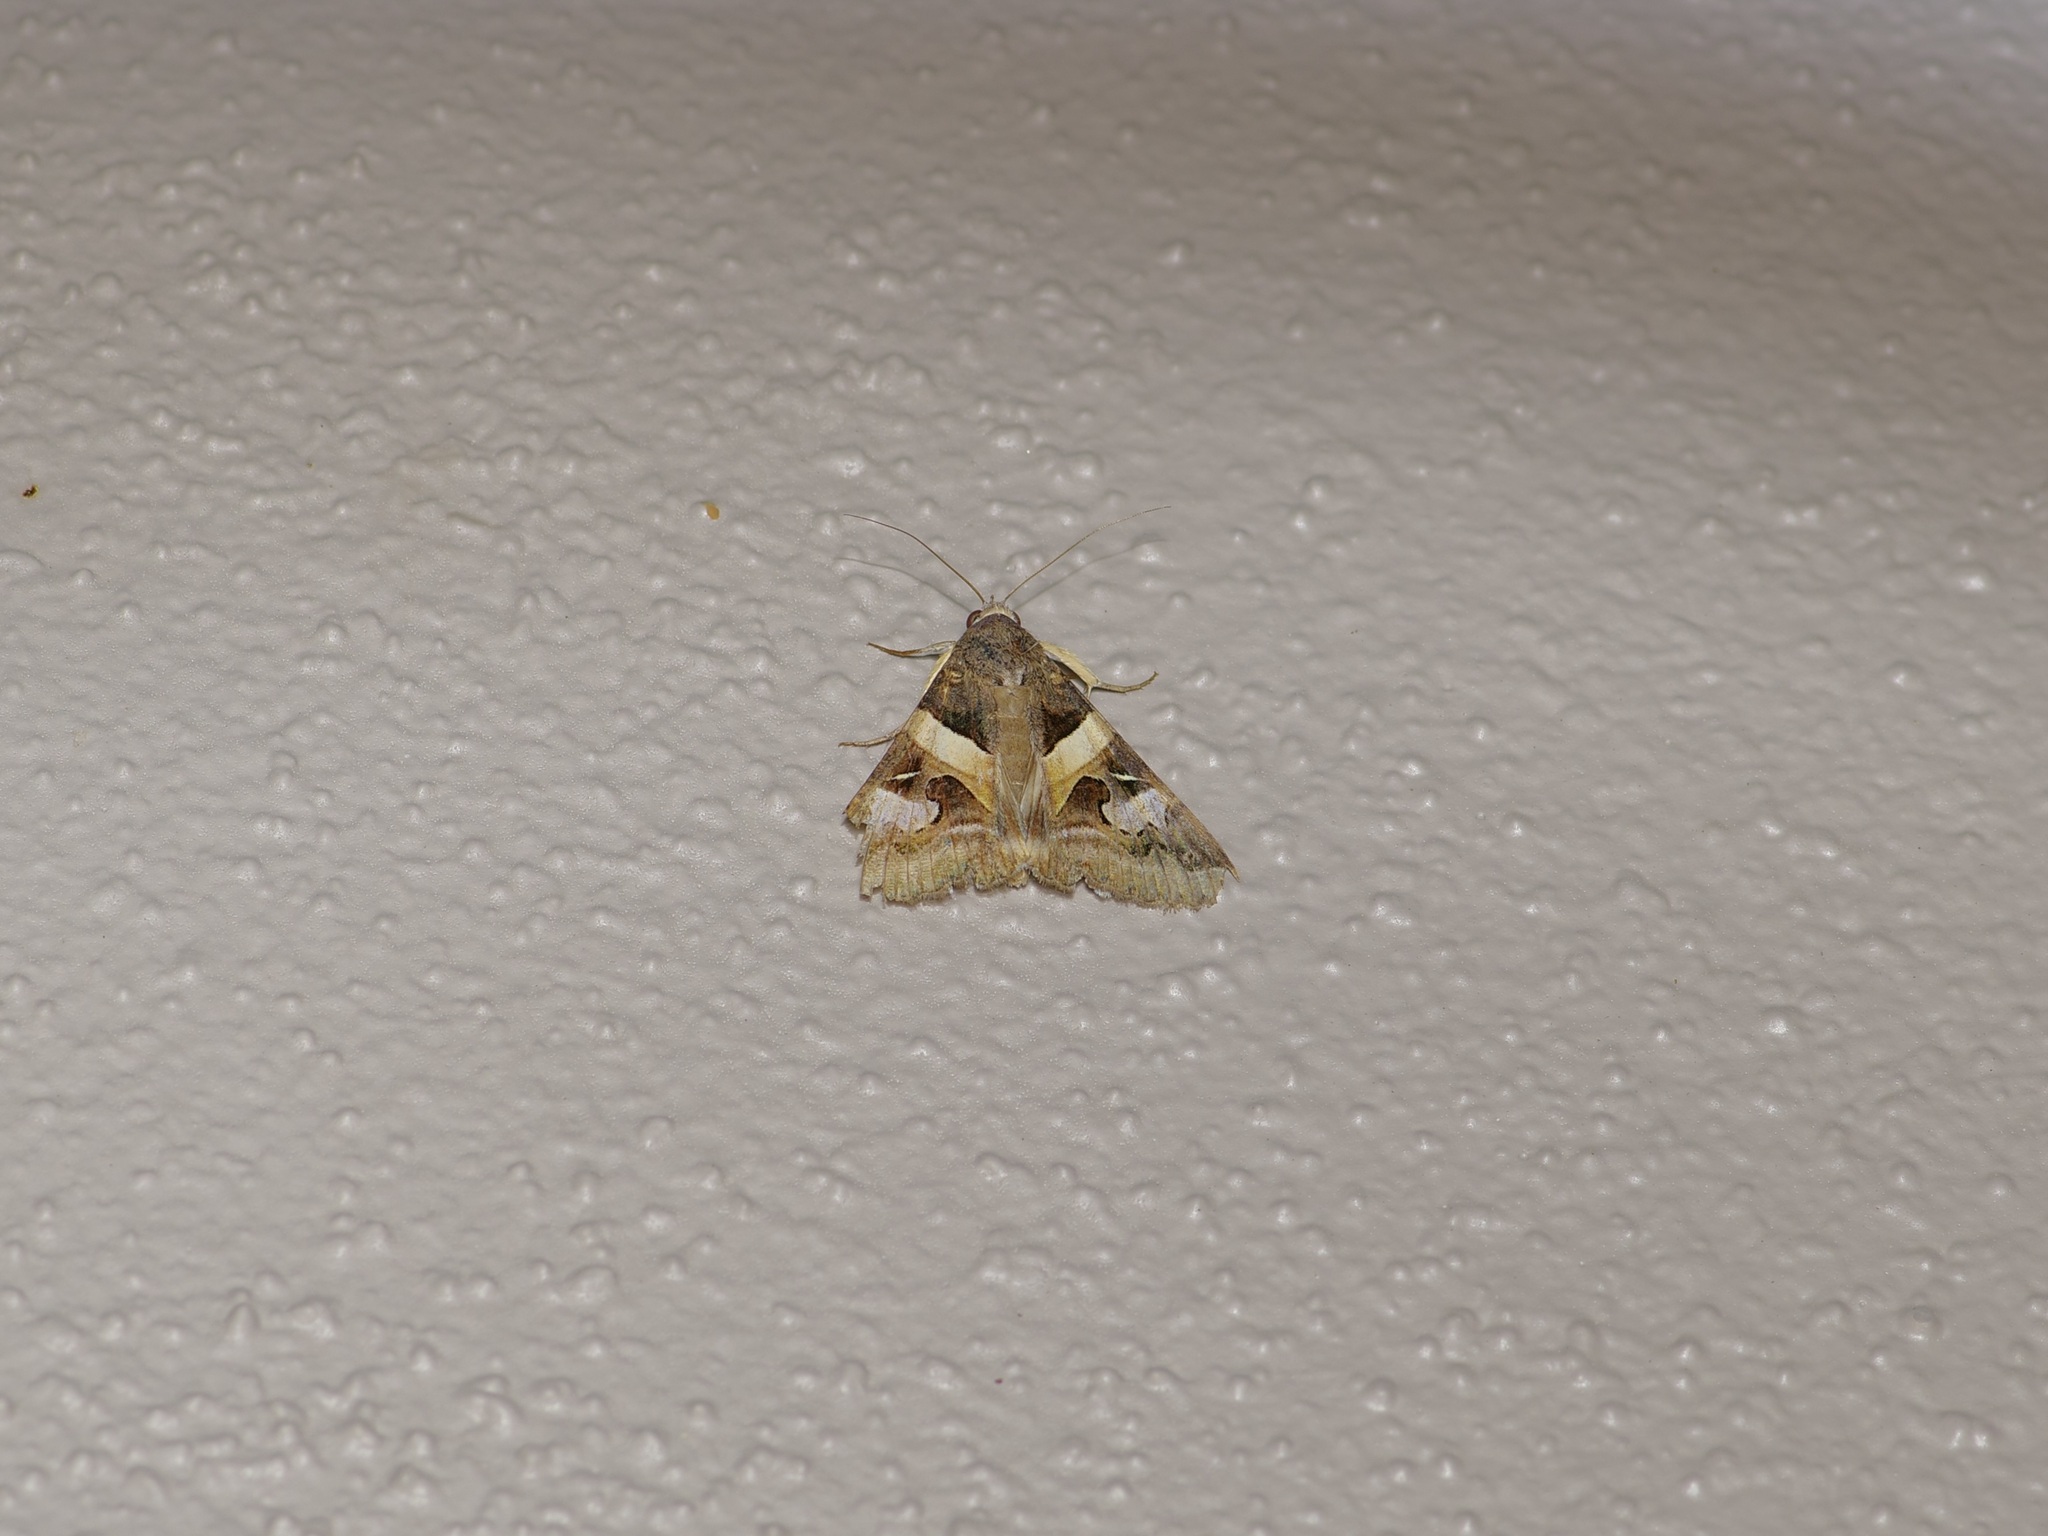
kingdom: Animalia
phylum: Arthropoda
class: Insecta
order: Lepidoptera
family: Erebidae
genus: Melipotis
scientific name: Melipotis indomita
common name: Moth
